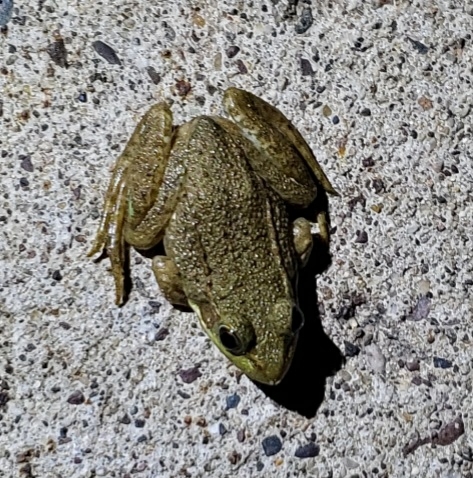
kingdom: Animalia
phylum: Chordata
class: Amphibia
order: Anura
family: Ranidae
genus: Lithobates
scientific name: Lithobates clamitans
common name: Green frog
